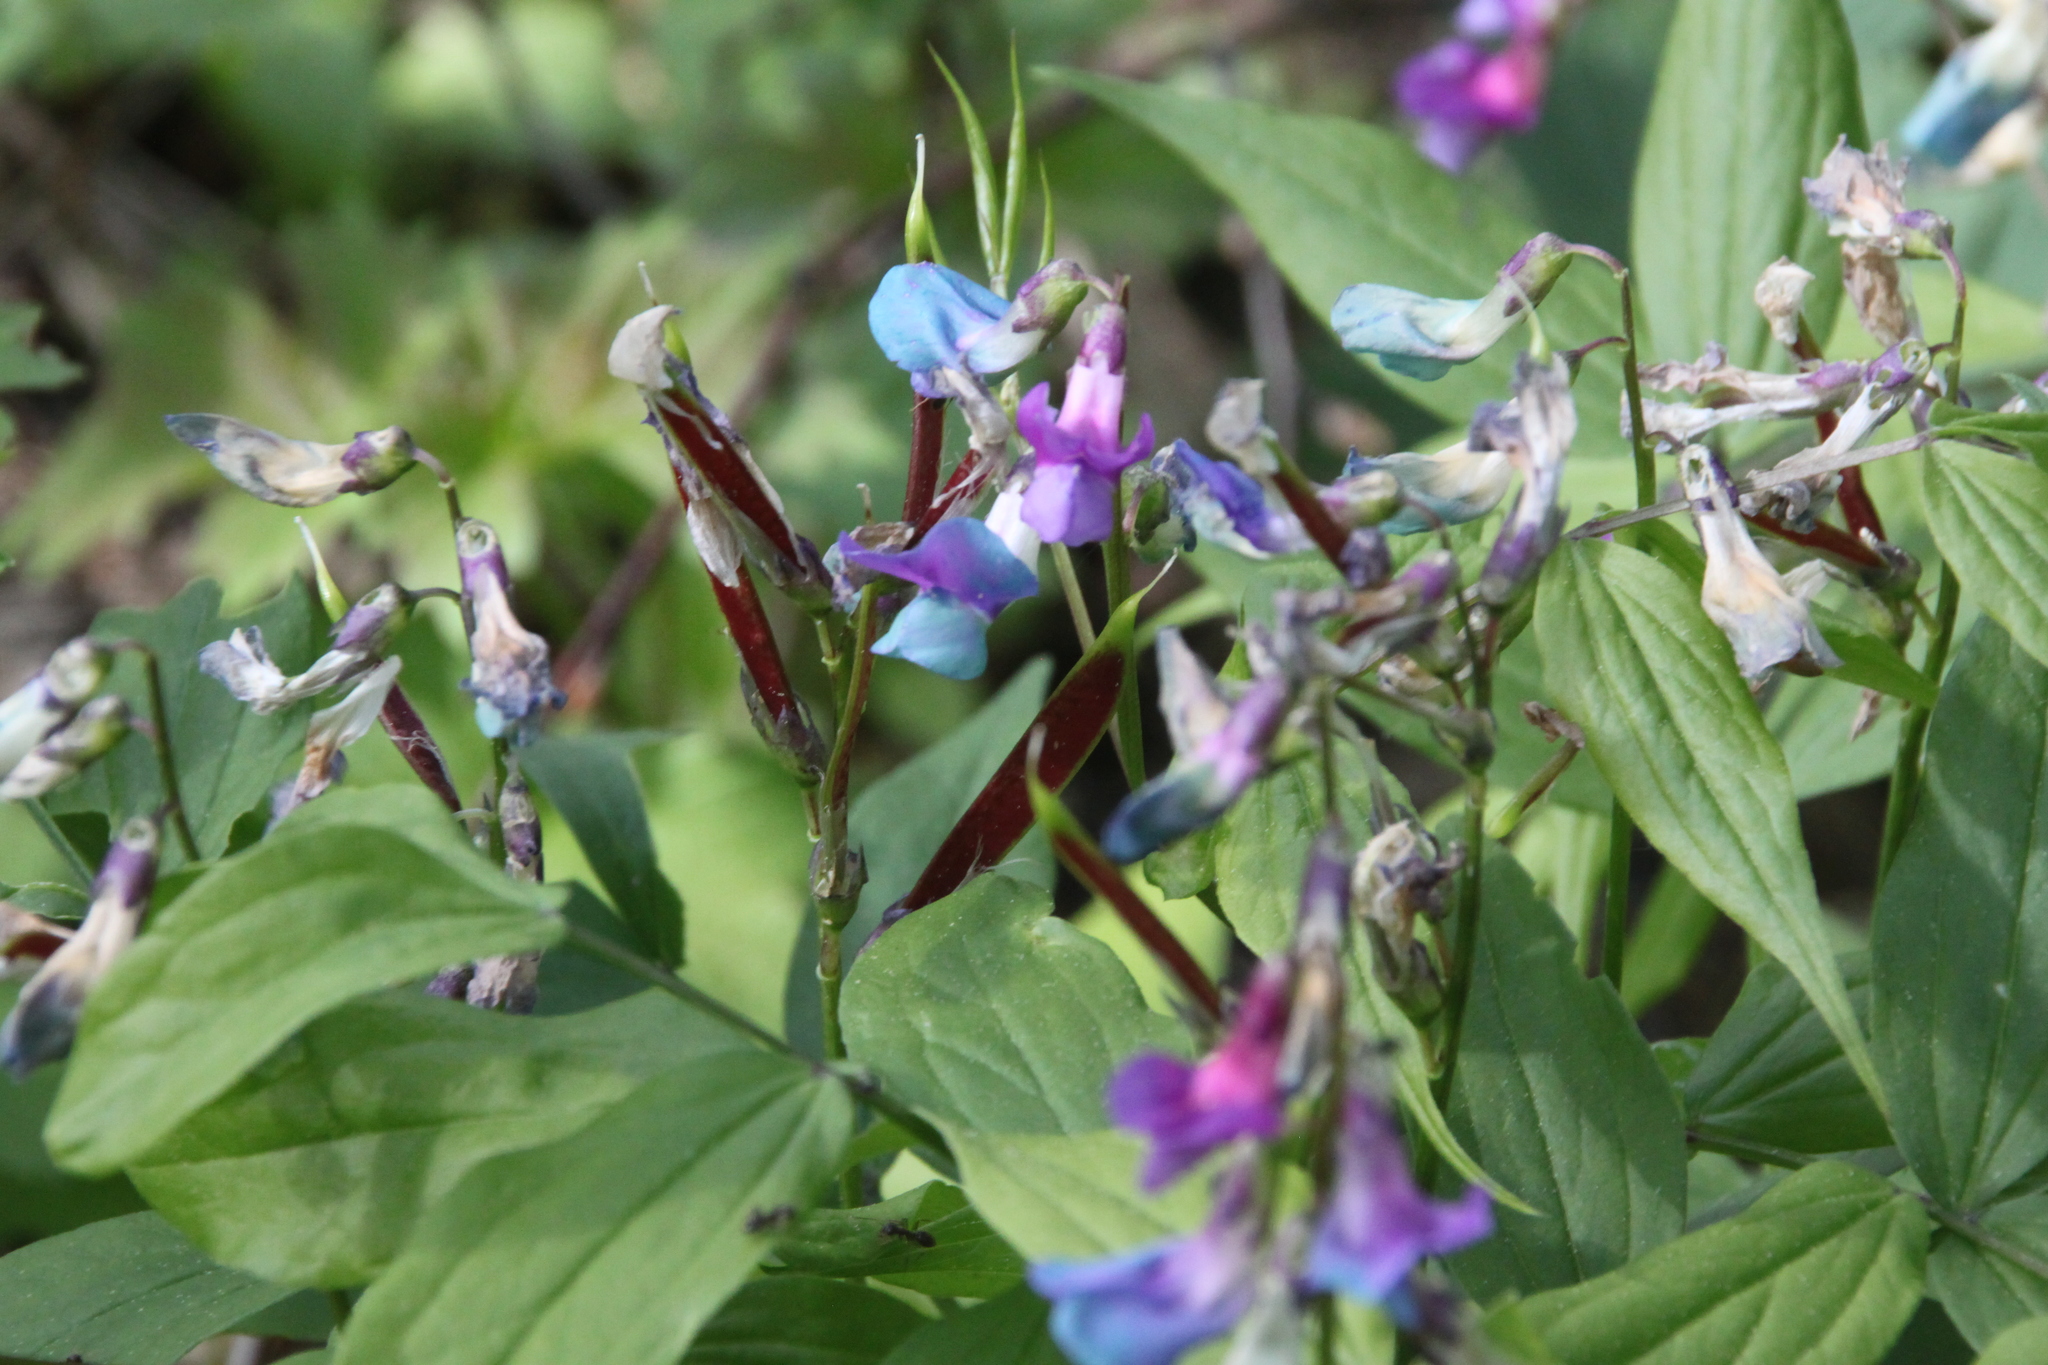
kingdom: Plantae
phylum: Tracheophyta
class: Magnoliopsida
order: Fabales
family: Fabaceae
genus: Lathyrus
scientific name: Lathyrus vernus
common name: Spring pea
